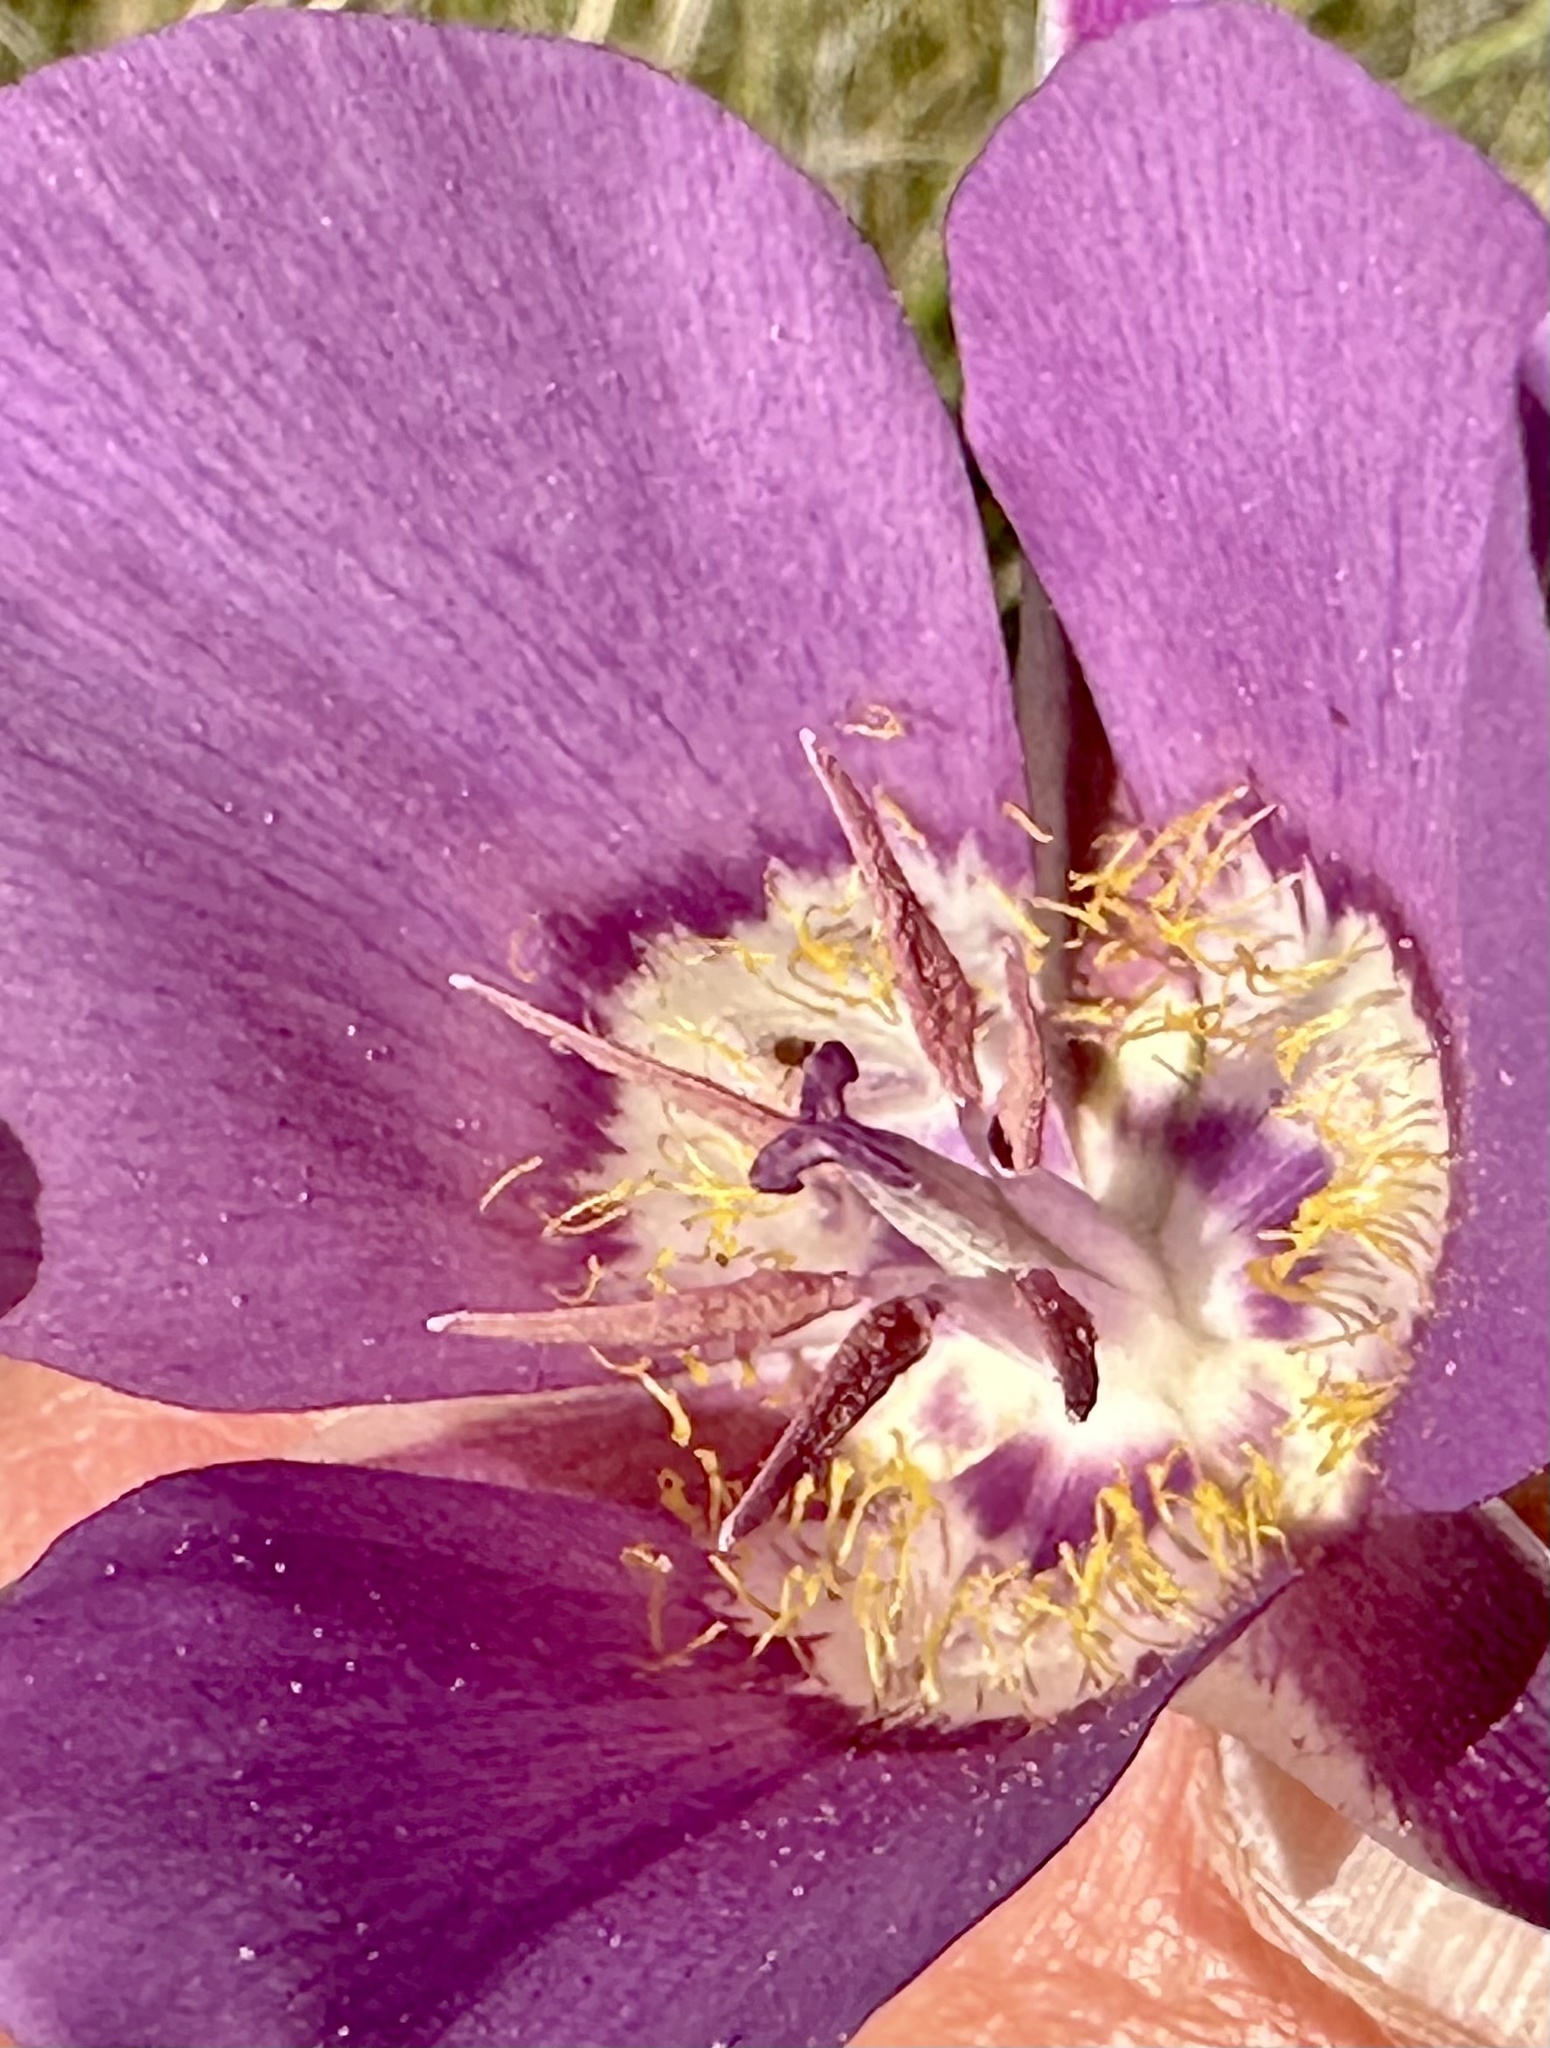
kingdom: Plantae
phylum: Tracheophyta
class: Liliopsida
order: Liliales
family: Liliaceae
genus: Calochortus
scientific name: Calochortus macrocarpus
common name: Green-band mariposa lily
